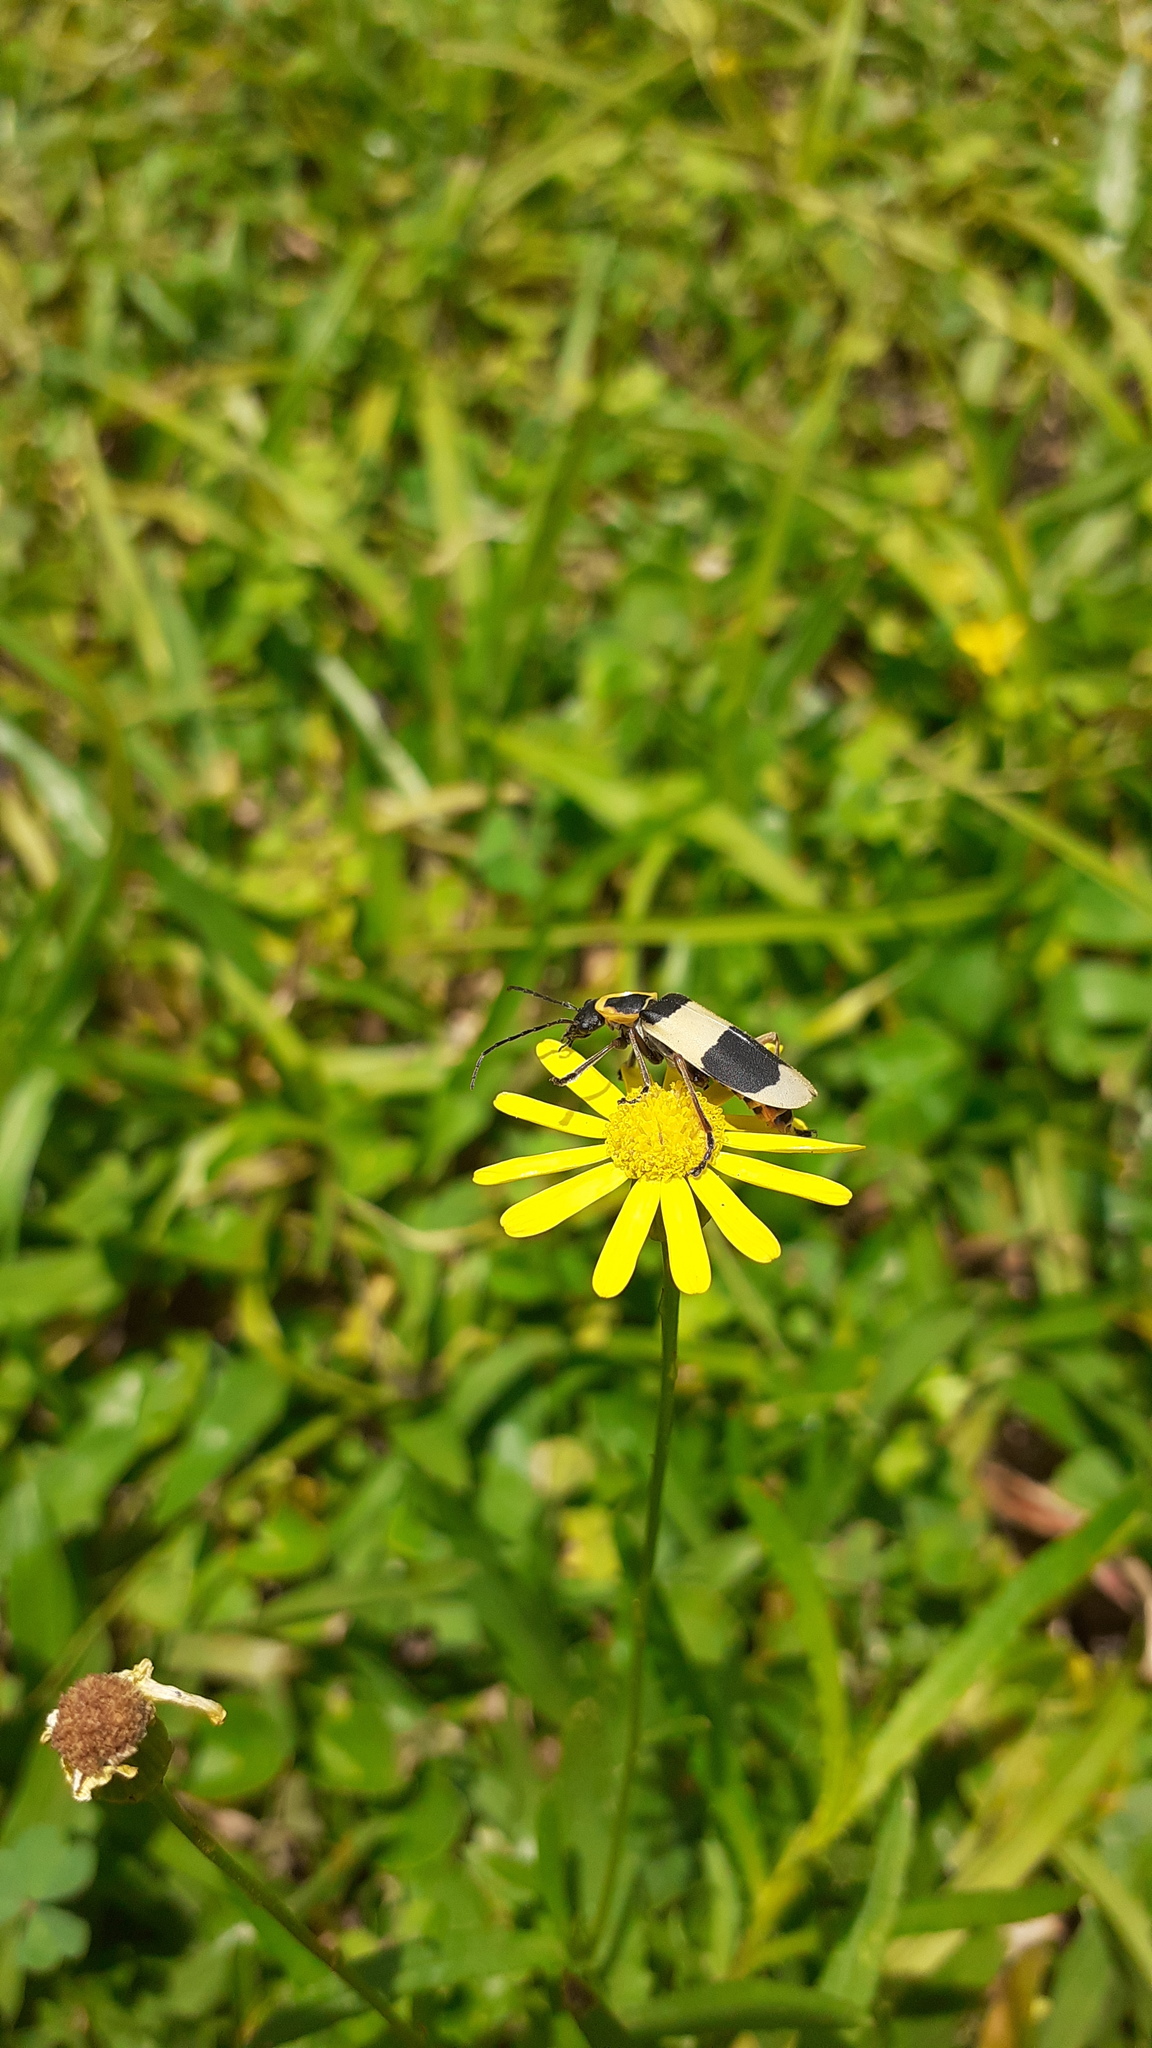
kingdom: Animalia
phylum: Arthropoda
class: Insecta
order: Coleoptera
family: Cantharidae
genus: Chauliognathus
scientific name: Chauliognathus
